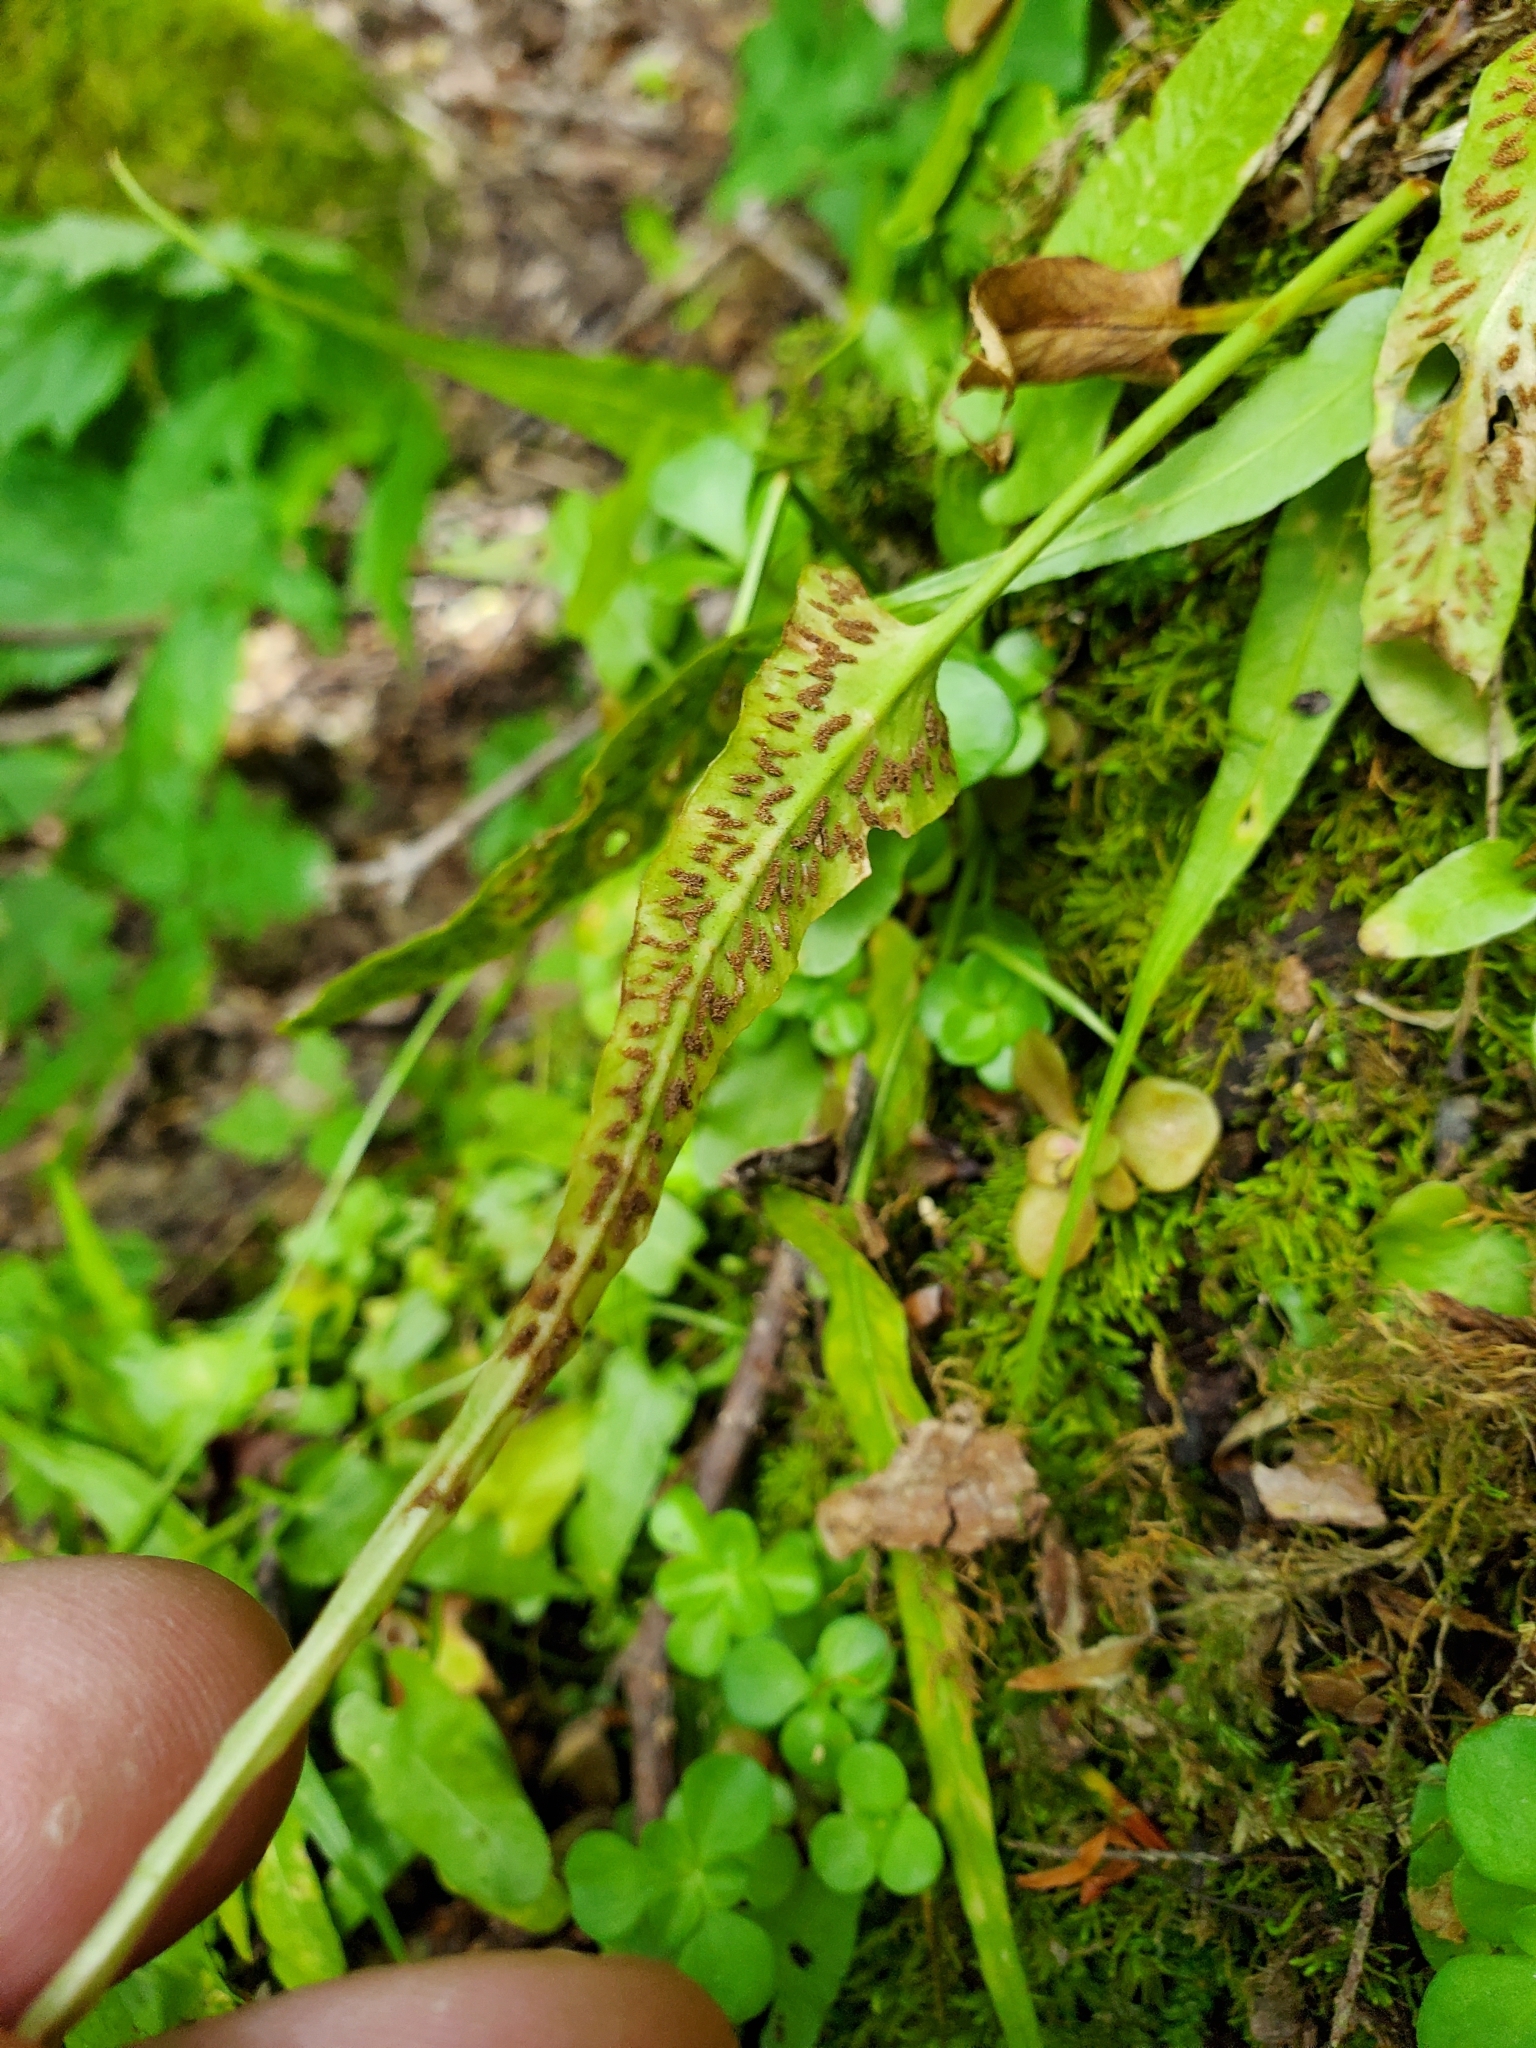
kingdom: Plantae
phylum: Tracheophyta
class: Polypodiopsida
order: Polypodiales
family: Aspleniaceae
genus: Asplenium
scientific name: Asplenium rhizophyllum
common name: Walking fern
